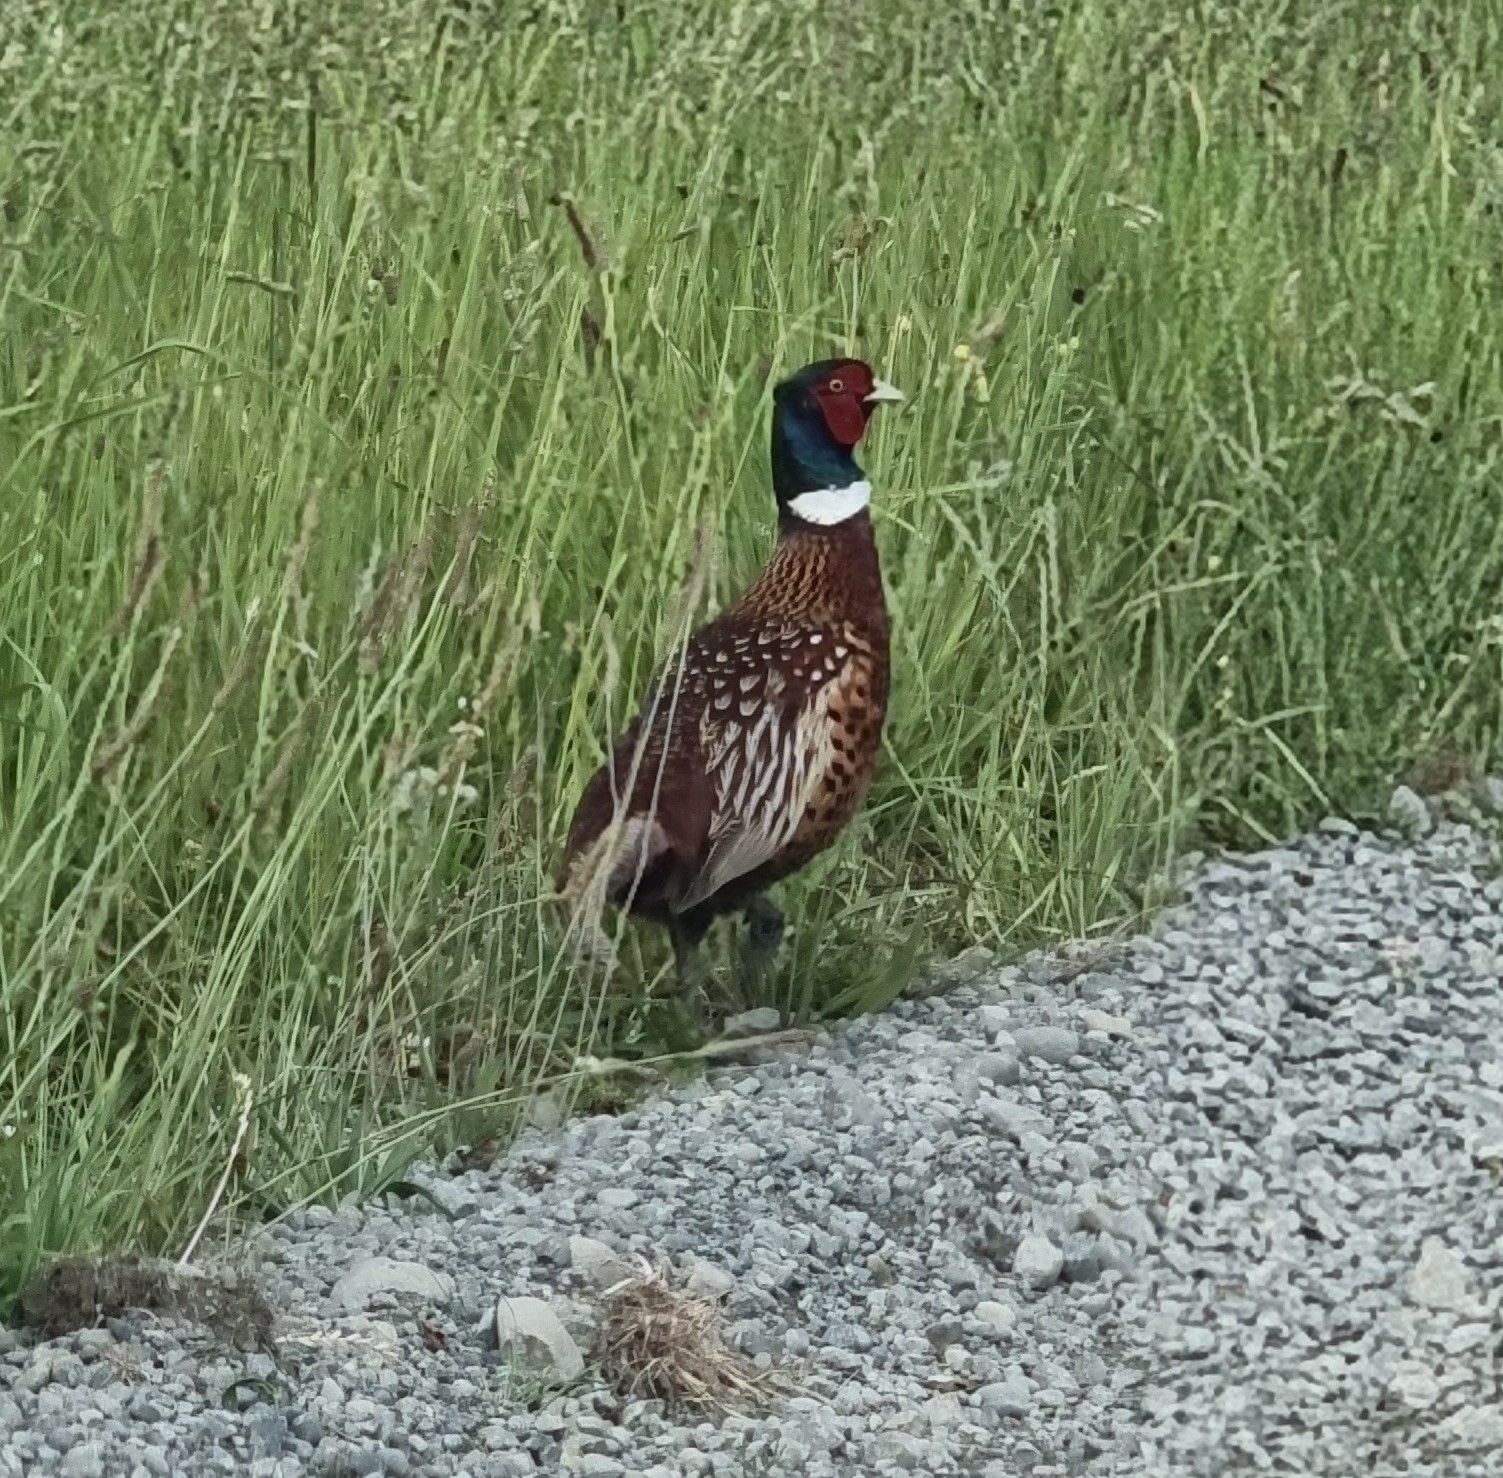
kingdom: Animalia
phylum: Chordata
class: Aves
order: Galliformes
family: Phasianidae
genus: Phasianus
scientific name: Phasianus colchicus
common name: Common pheasant
